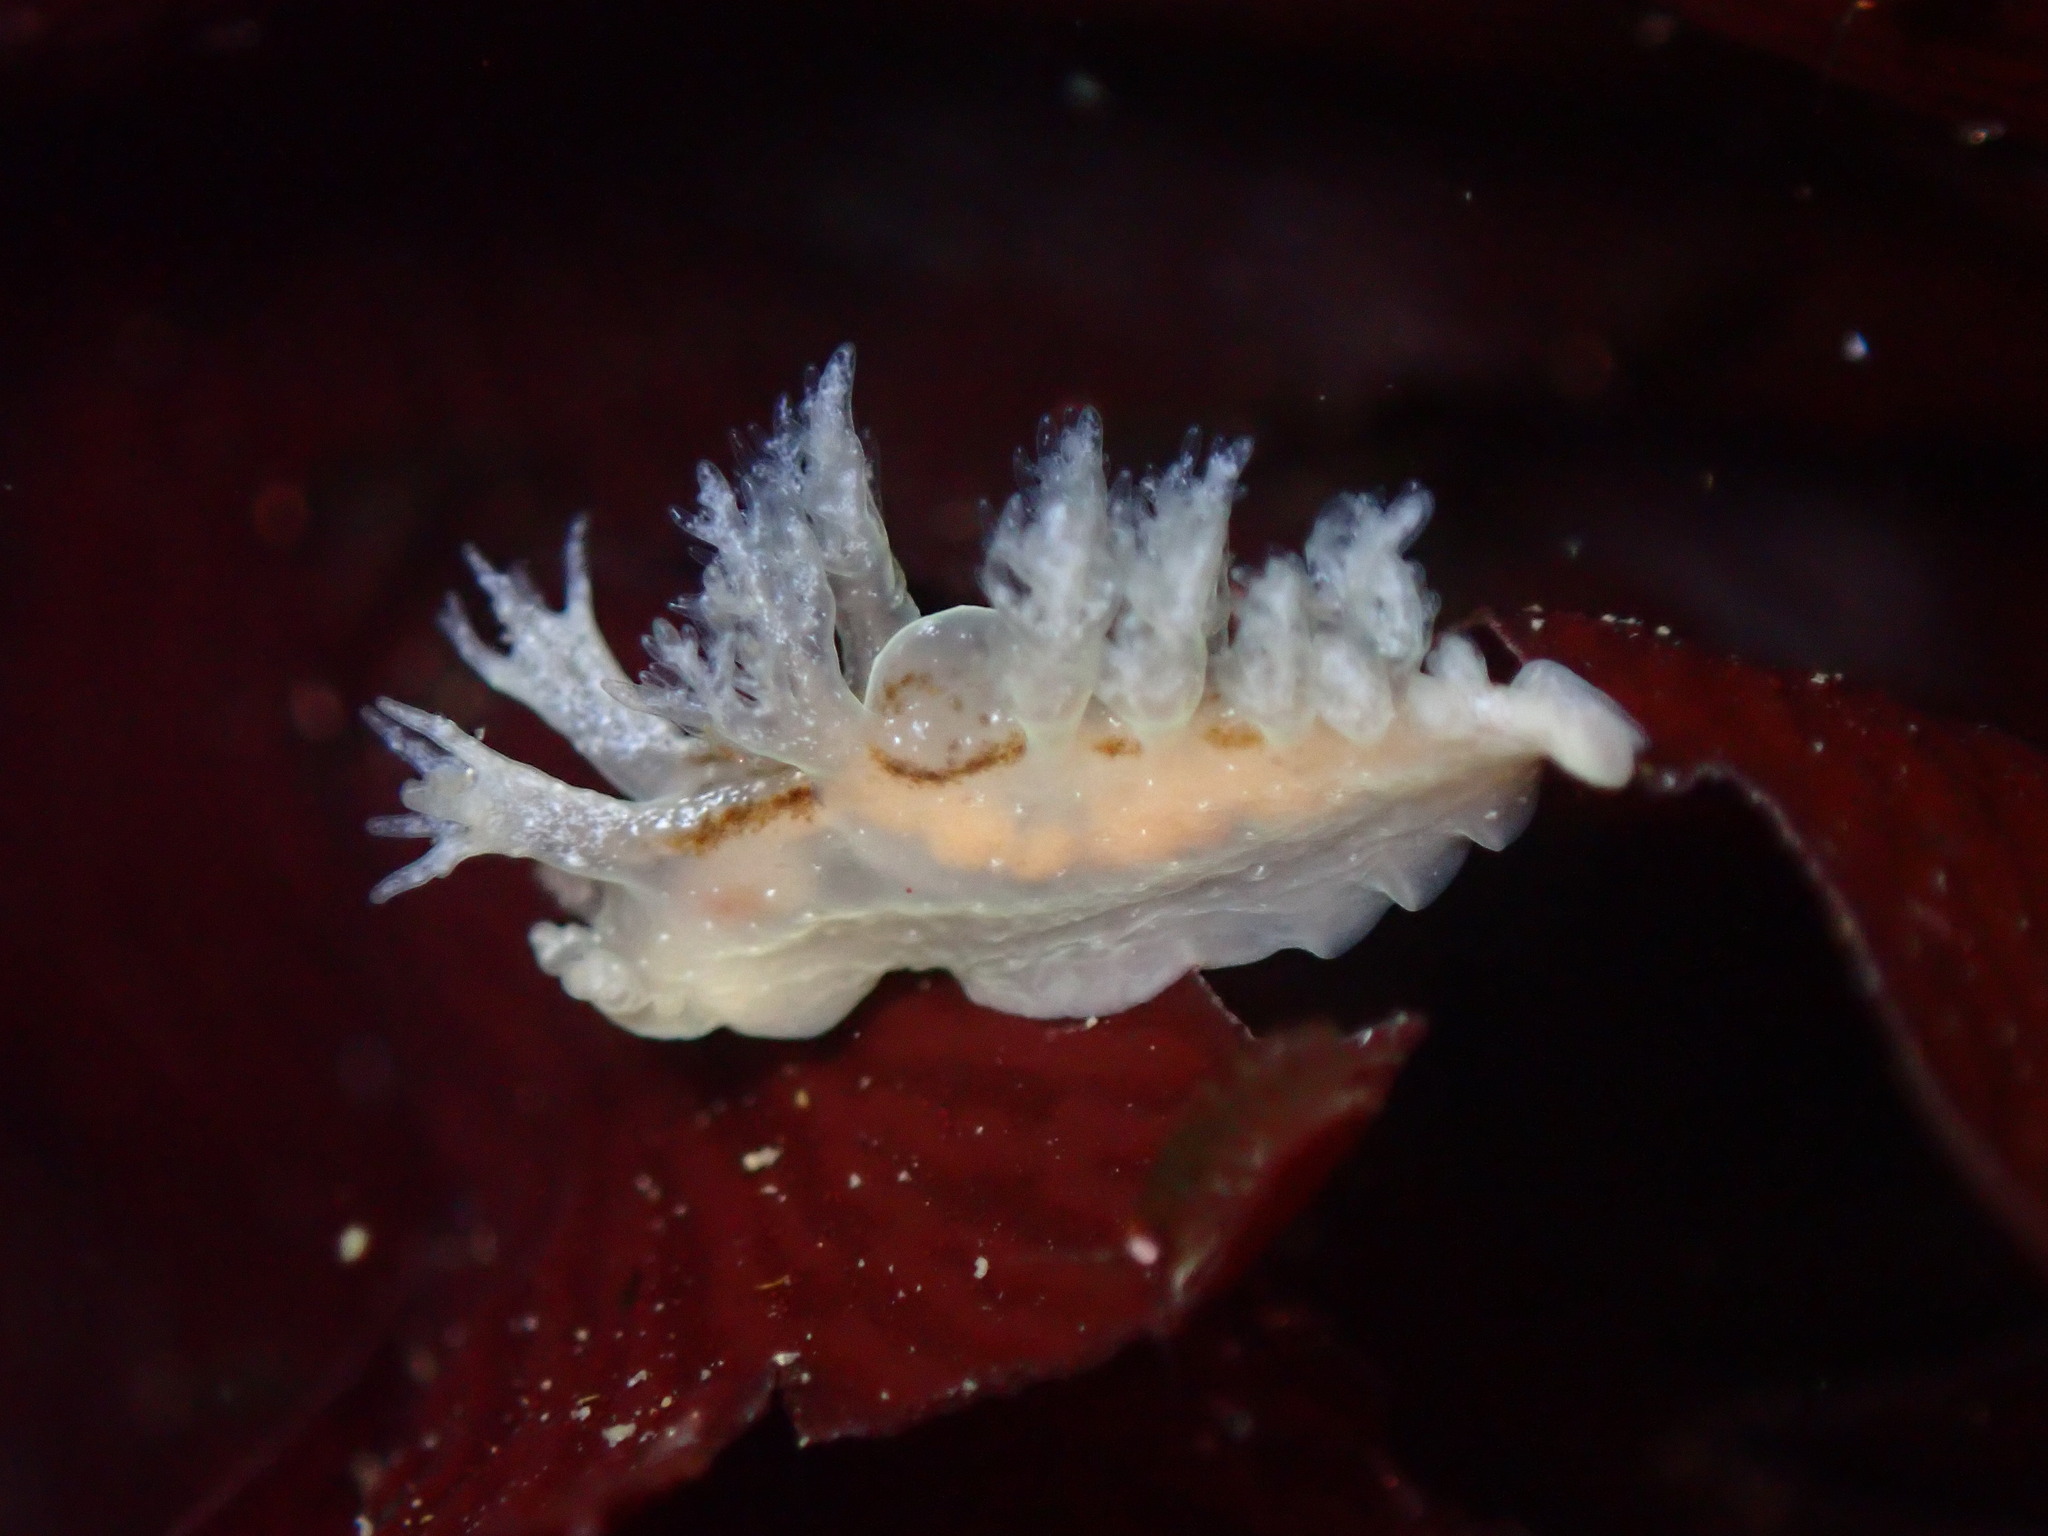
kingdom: Animalia
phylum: Mollusca
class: Gastropoda
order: Nudibranchia
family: Dendronotidae
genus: Dendronotus
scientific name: Dendronotus subramosus
